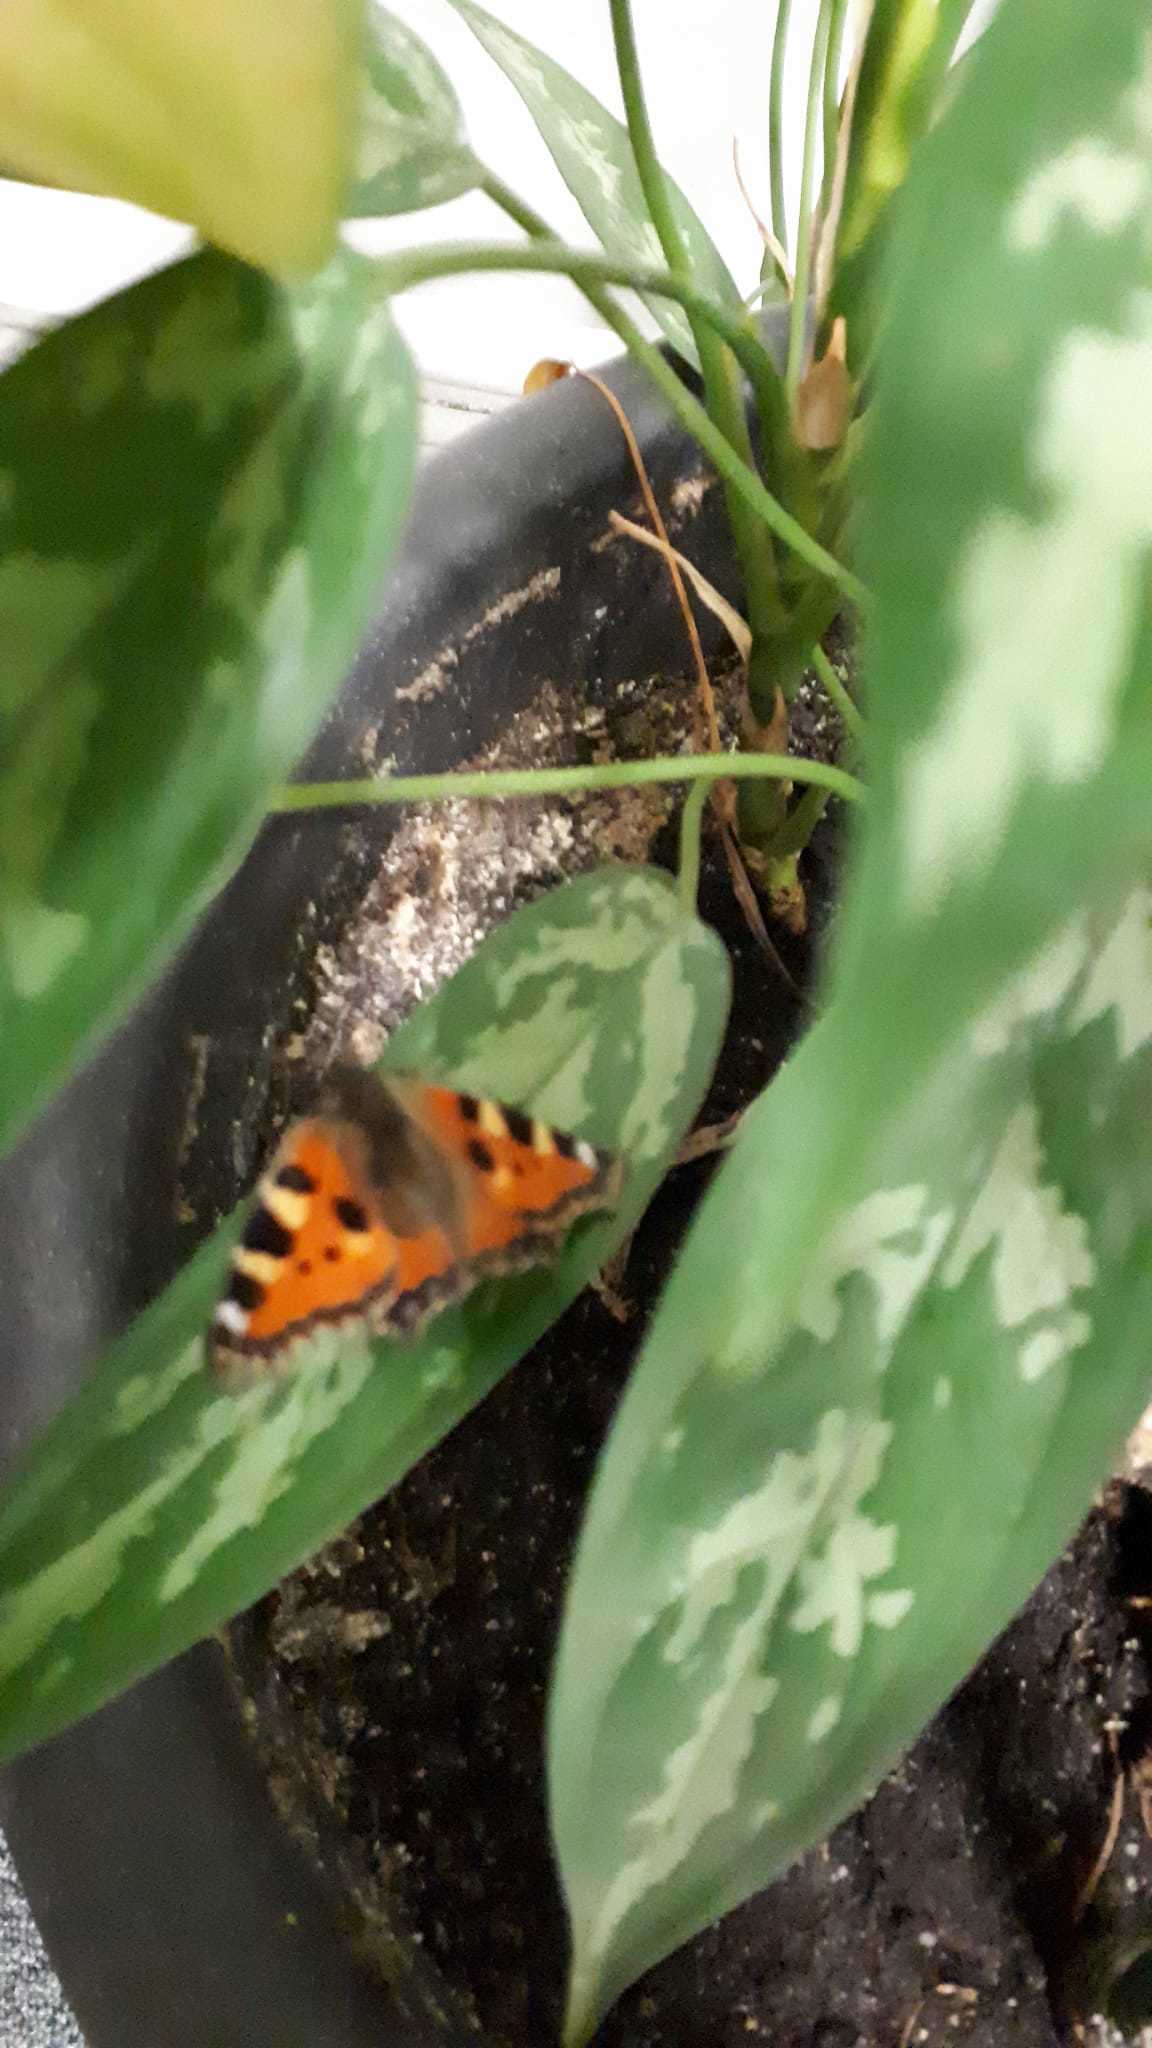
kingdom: Animalia
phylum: Arthropoda
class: Insecta
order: Lepidoptera
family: Nymphalidae
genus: Aglais
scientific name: Aglais urticae
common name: Small tortoiseshell
